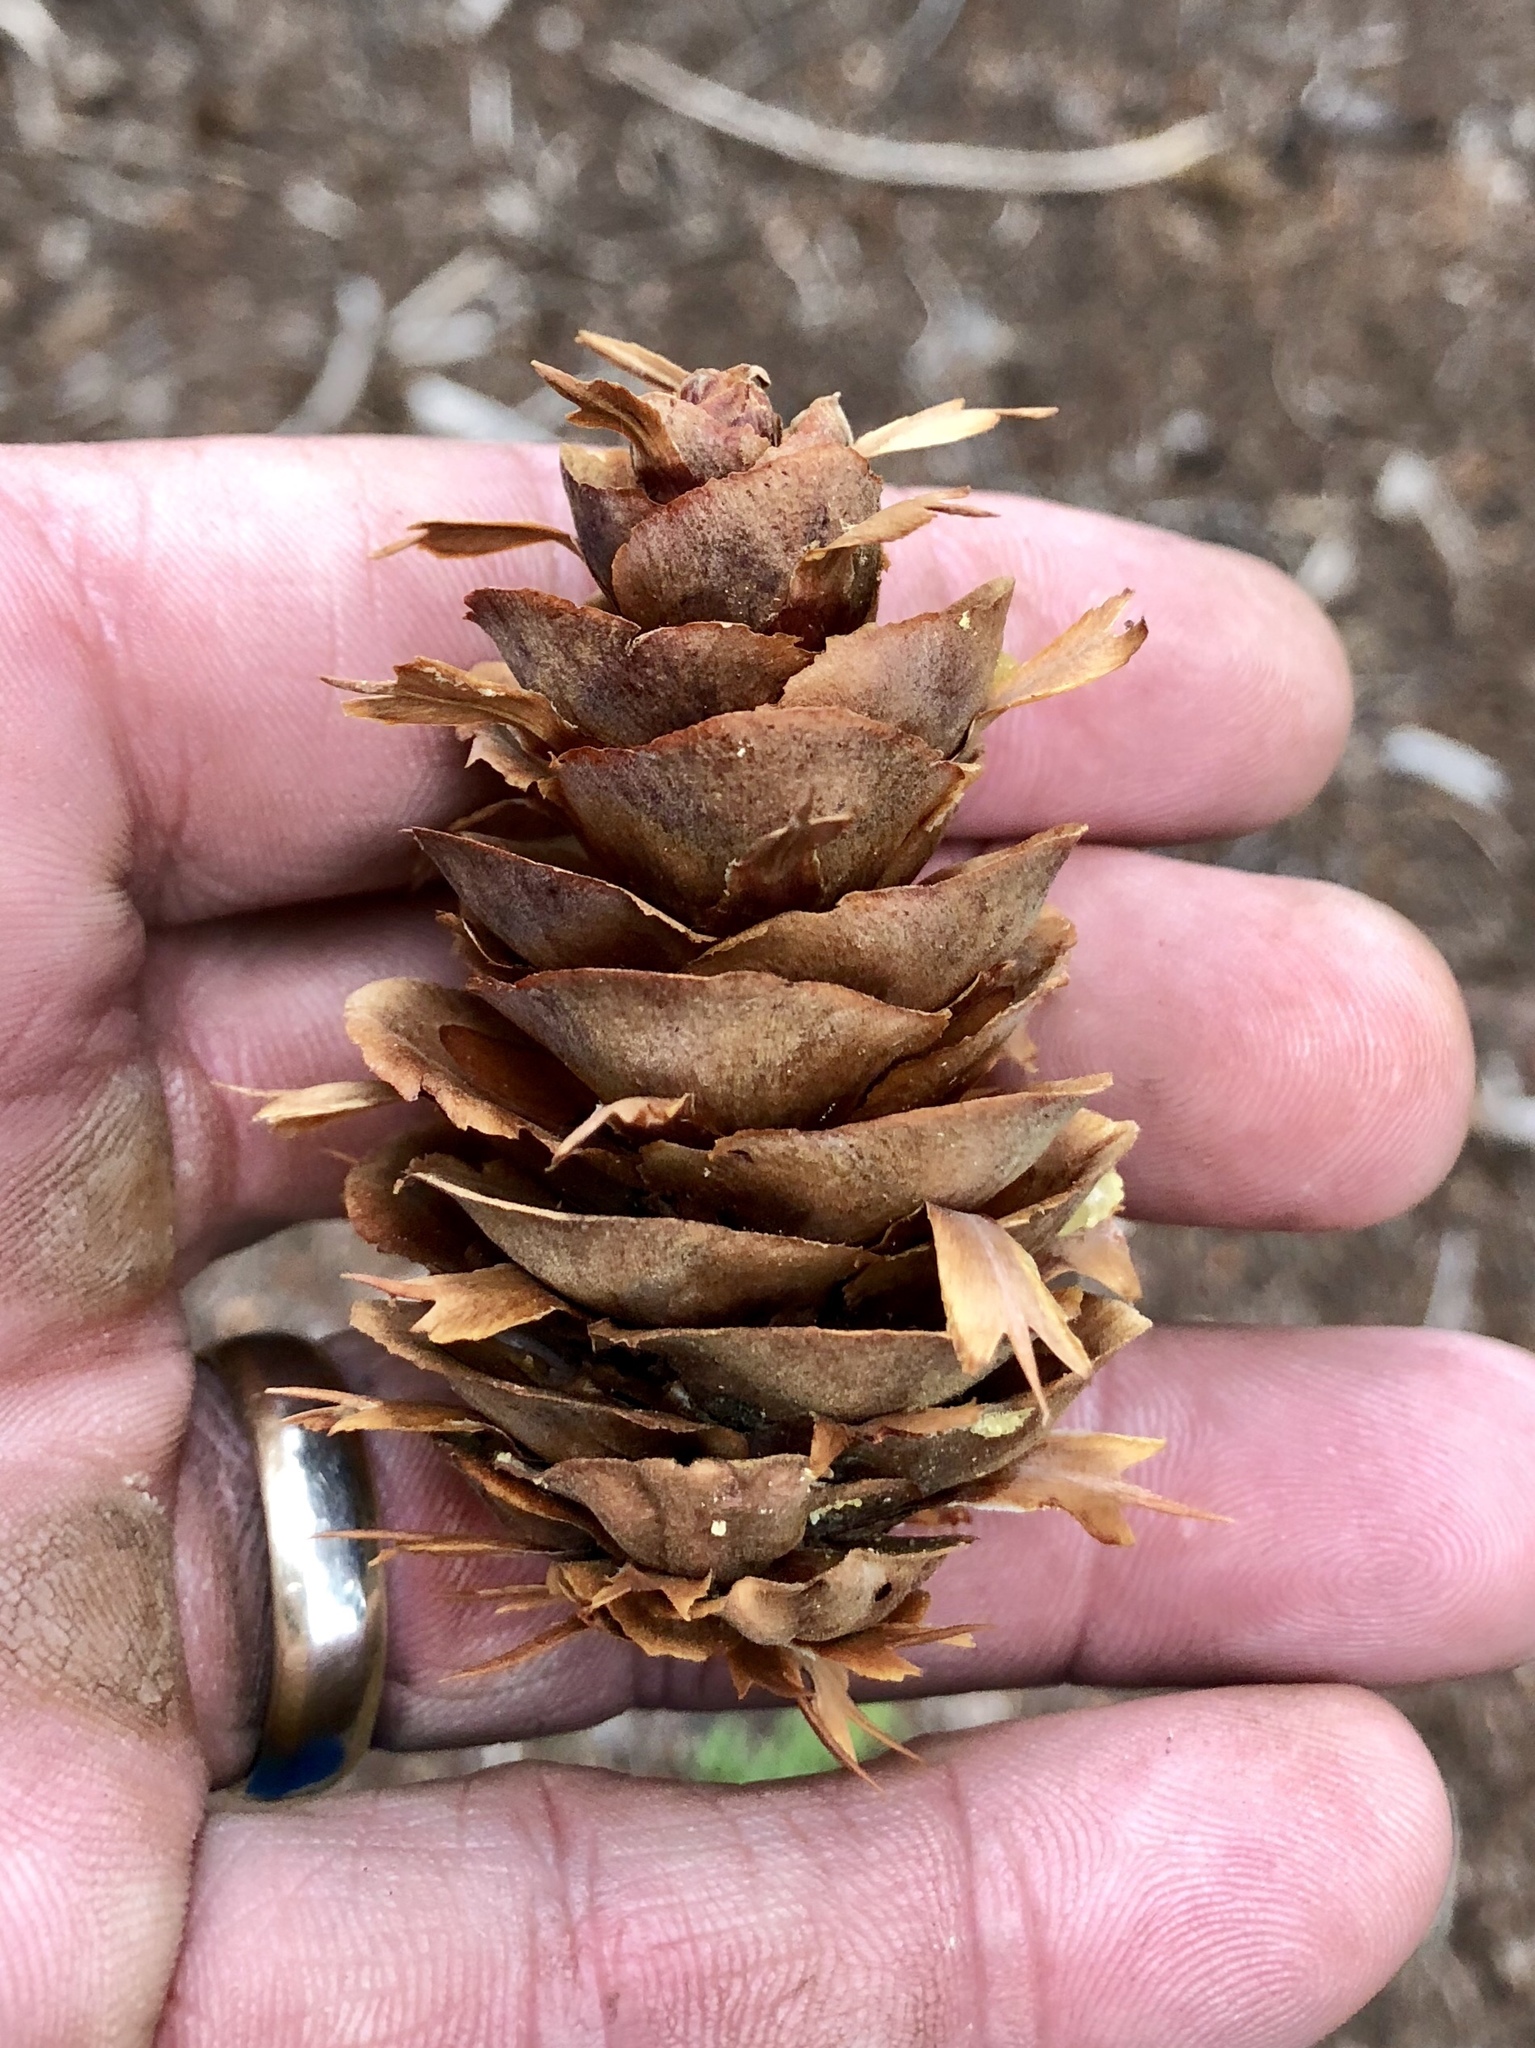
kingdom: Plantae
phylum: Tracheophyta
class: Pinopsida
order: Pinales
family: Pinaceae
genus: Pseudotsuga
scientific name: Pseudotsuga menziesii
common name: Douglas fir
